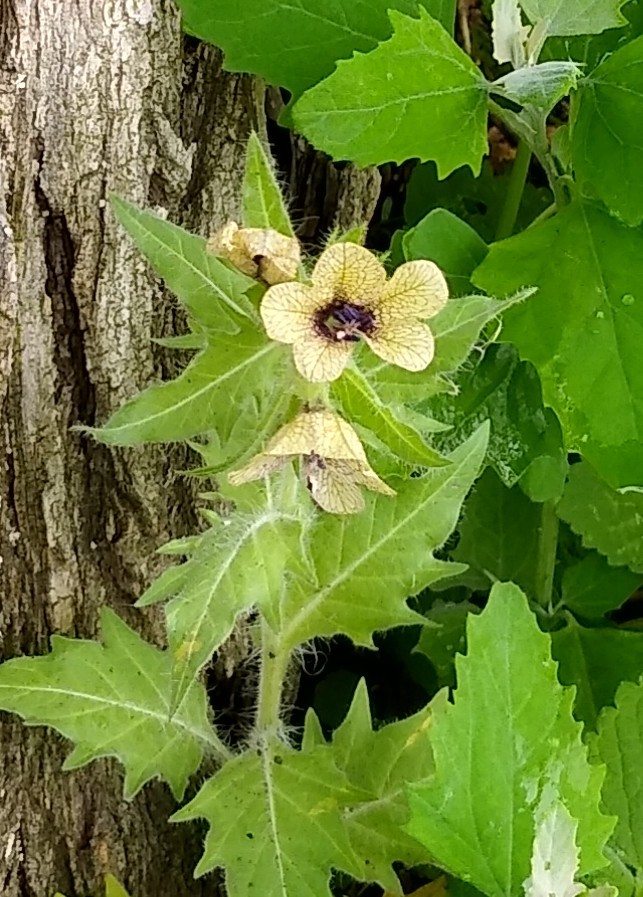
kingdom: Plantae
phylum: Tracheophyta
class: Magnoliopsida
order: Solanales
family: Solanaceae
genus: Hyoscyamus
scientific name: Hyoscyamus niger
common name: Henbane
